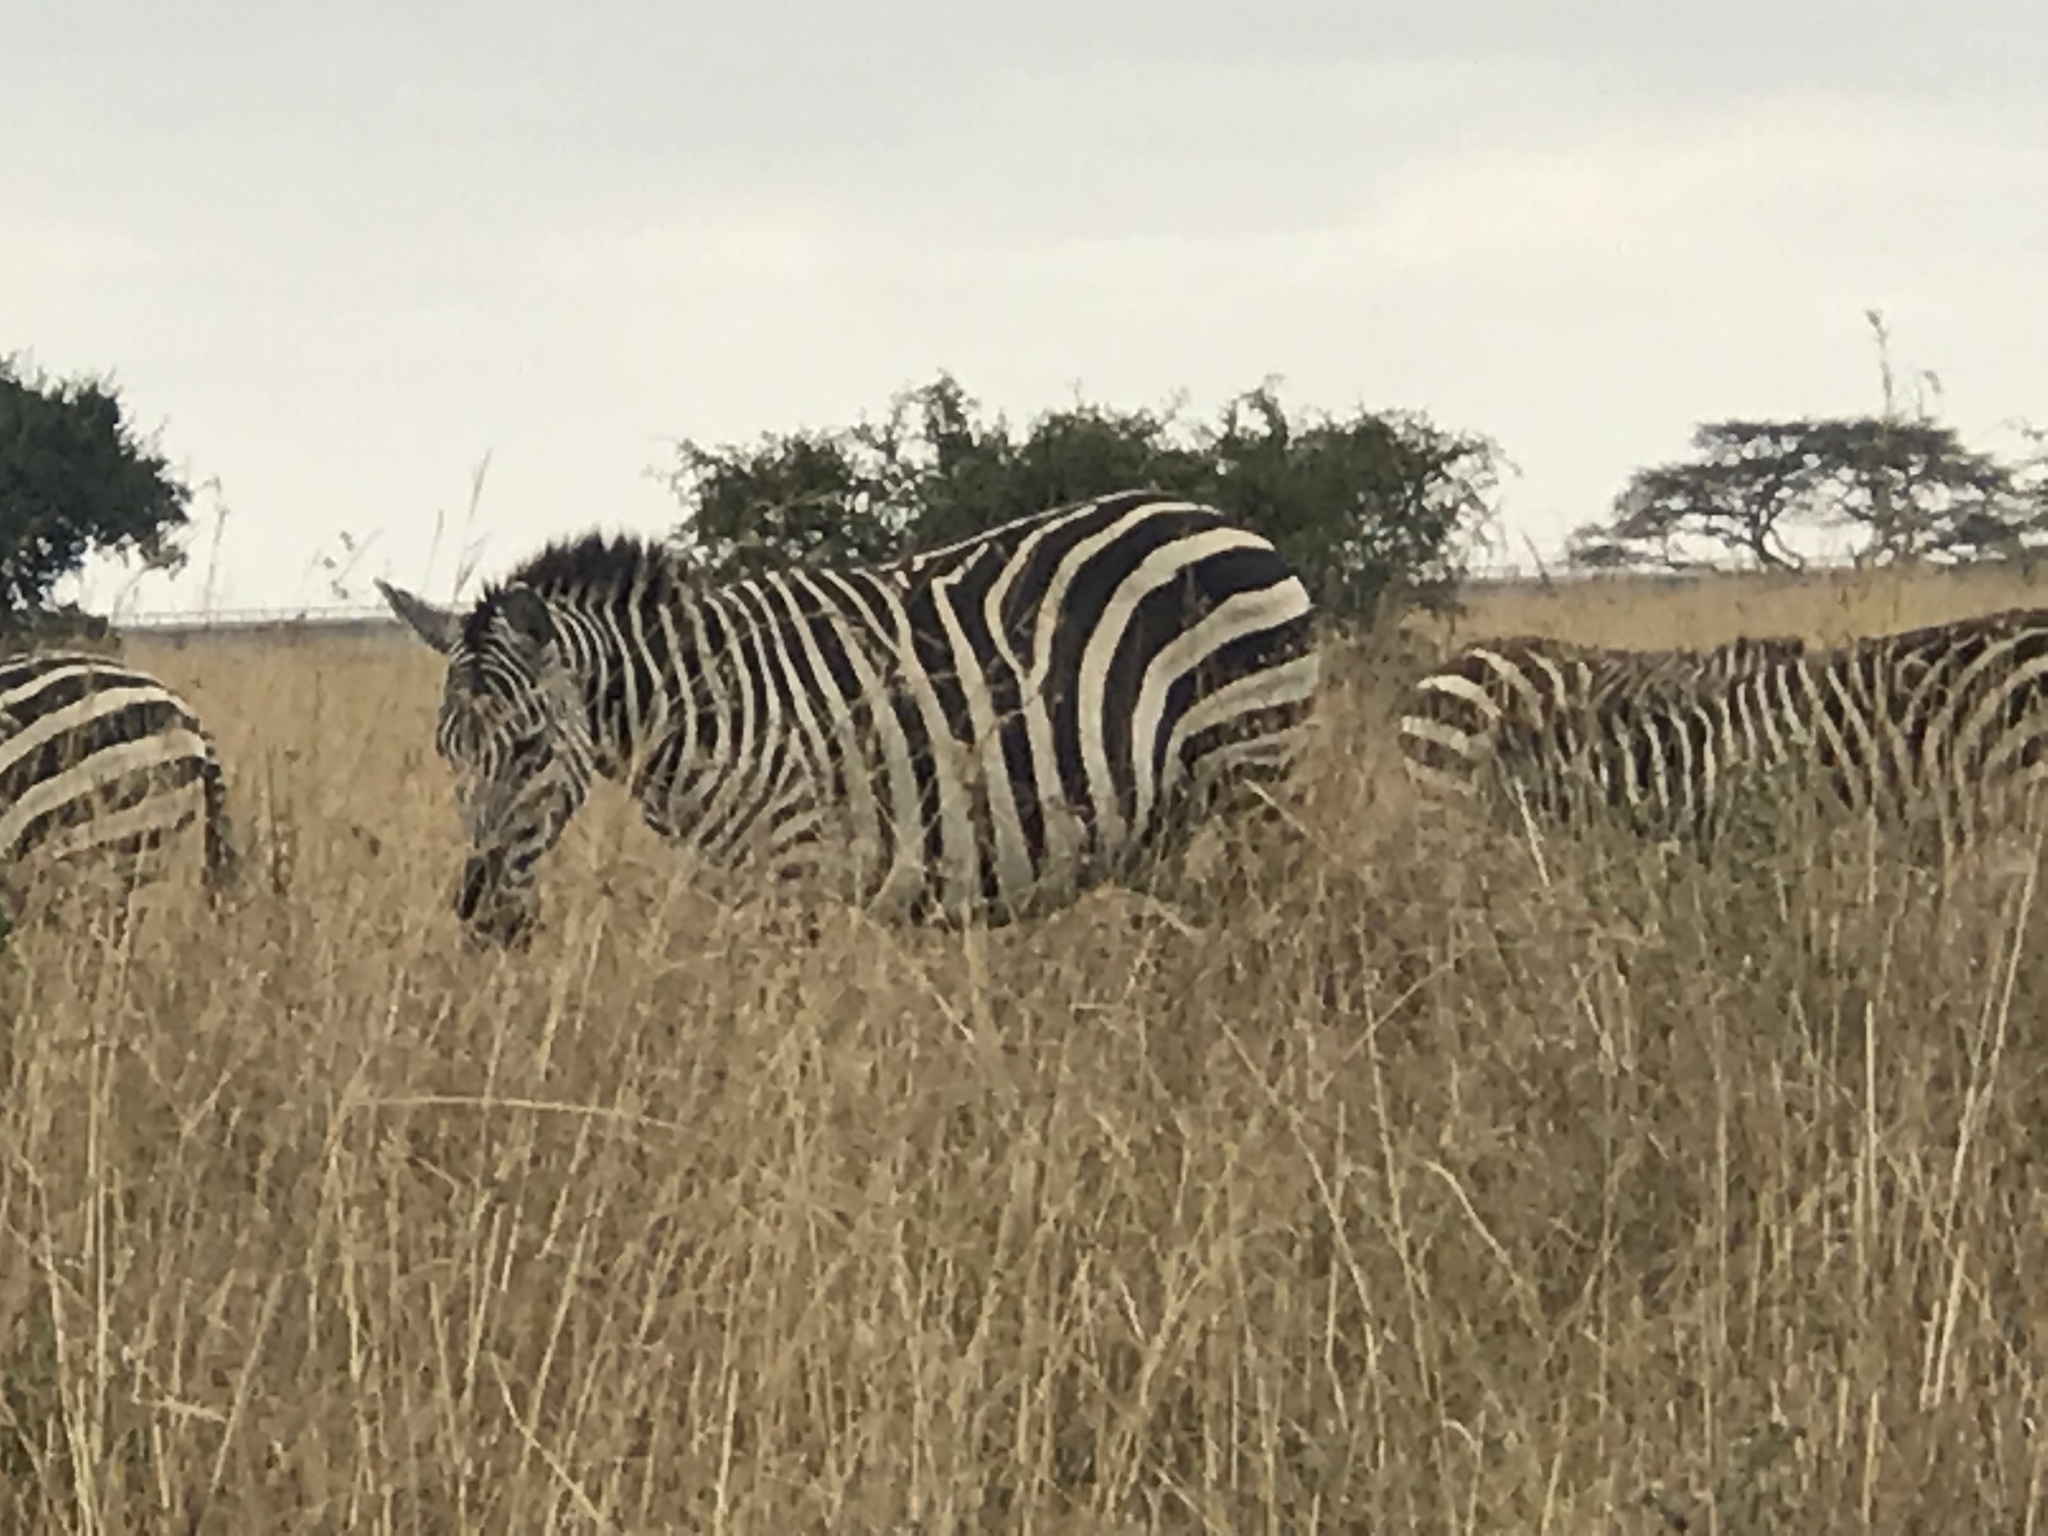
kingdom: Animalia
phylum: Chordata
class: Mammalia
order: Perissodactyla
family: Equidae
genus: Equus
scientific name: Equus quagga
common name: Plains zebra
